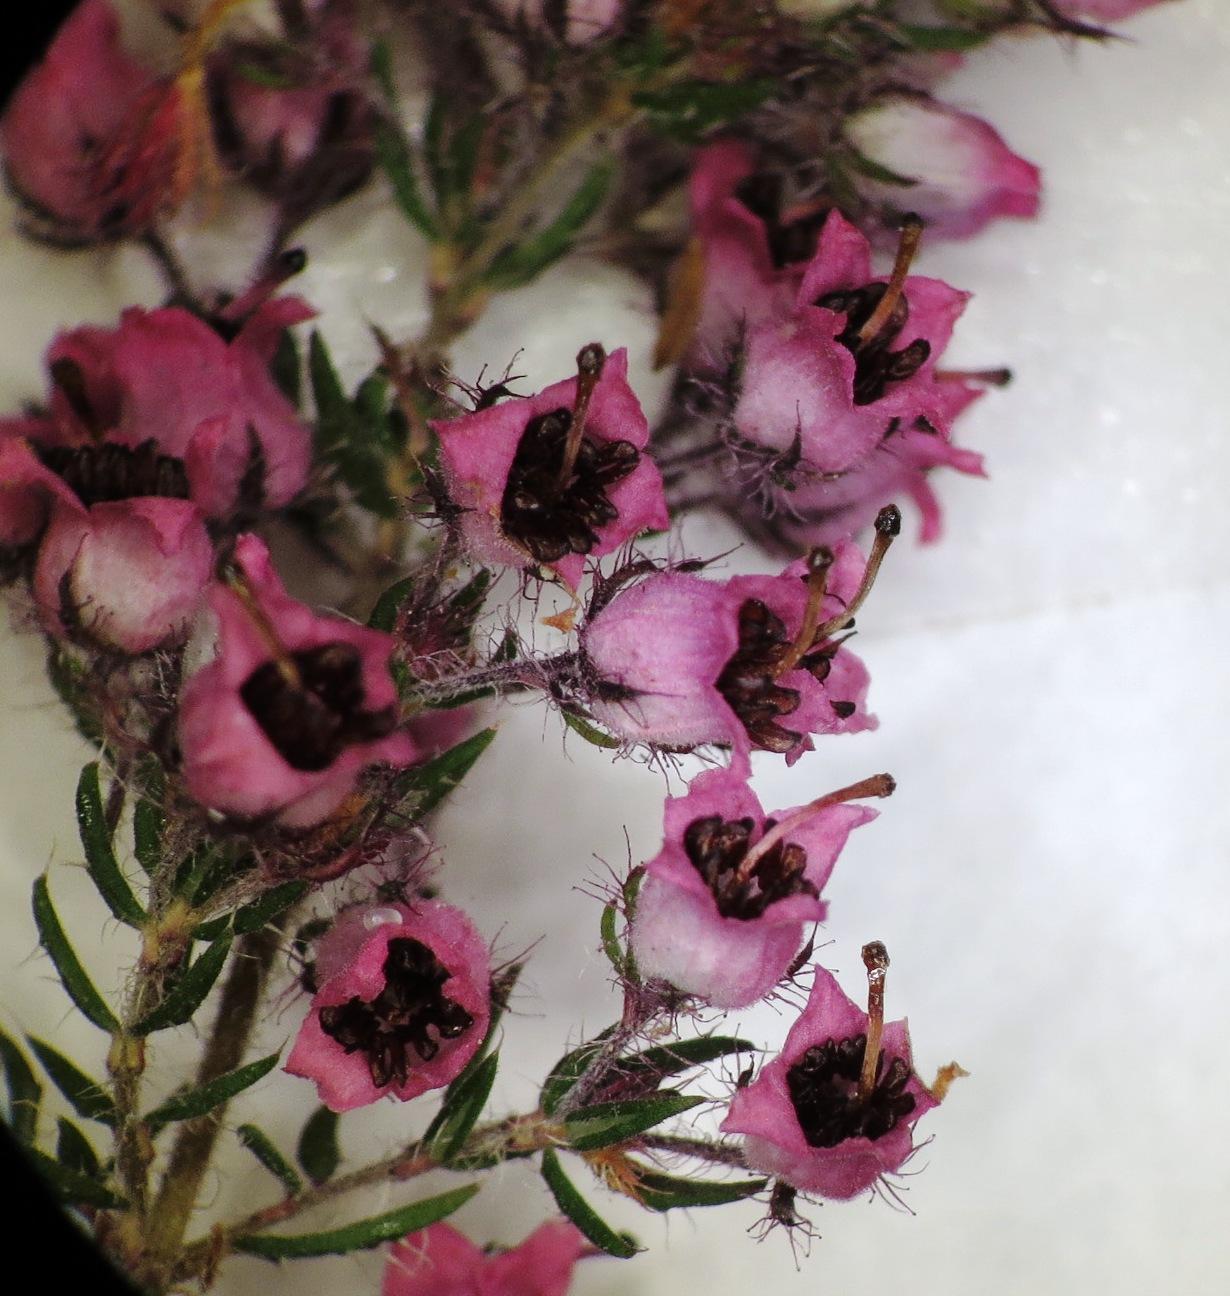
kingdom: Plantae
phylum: Tracheophyta
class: Magnoliopsida
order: Ericales
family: Ericaceae
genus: Erica
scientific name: Erica setosa
